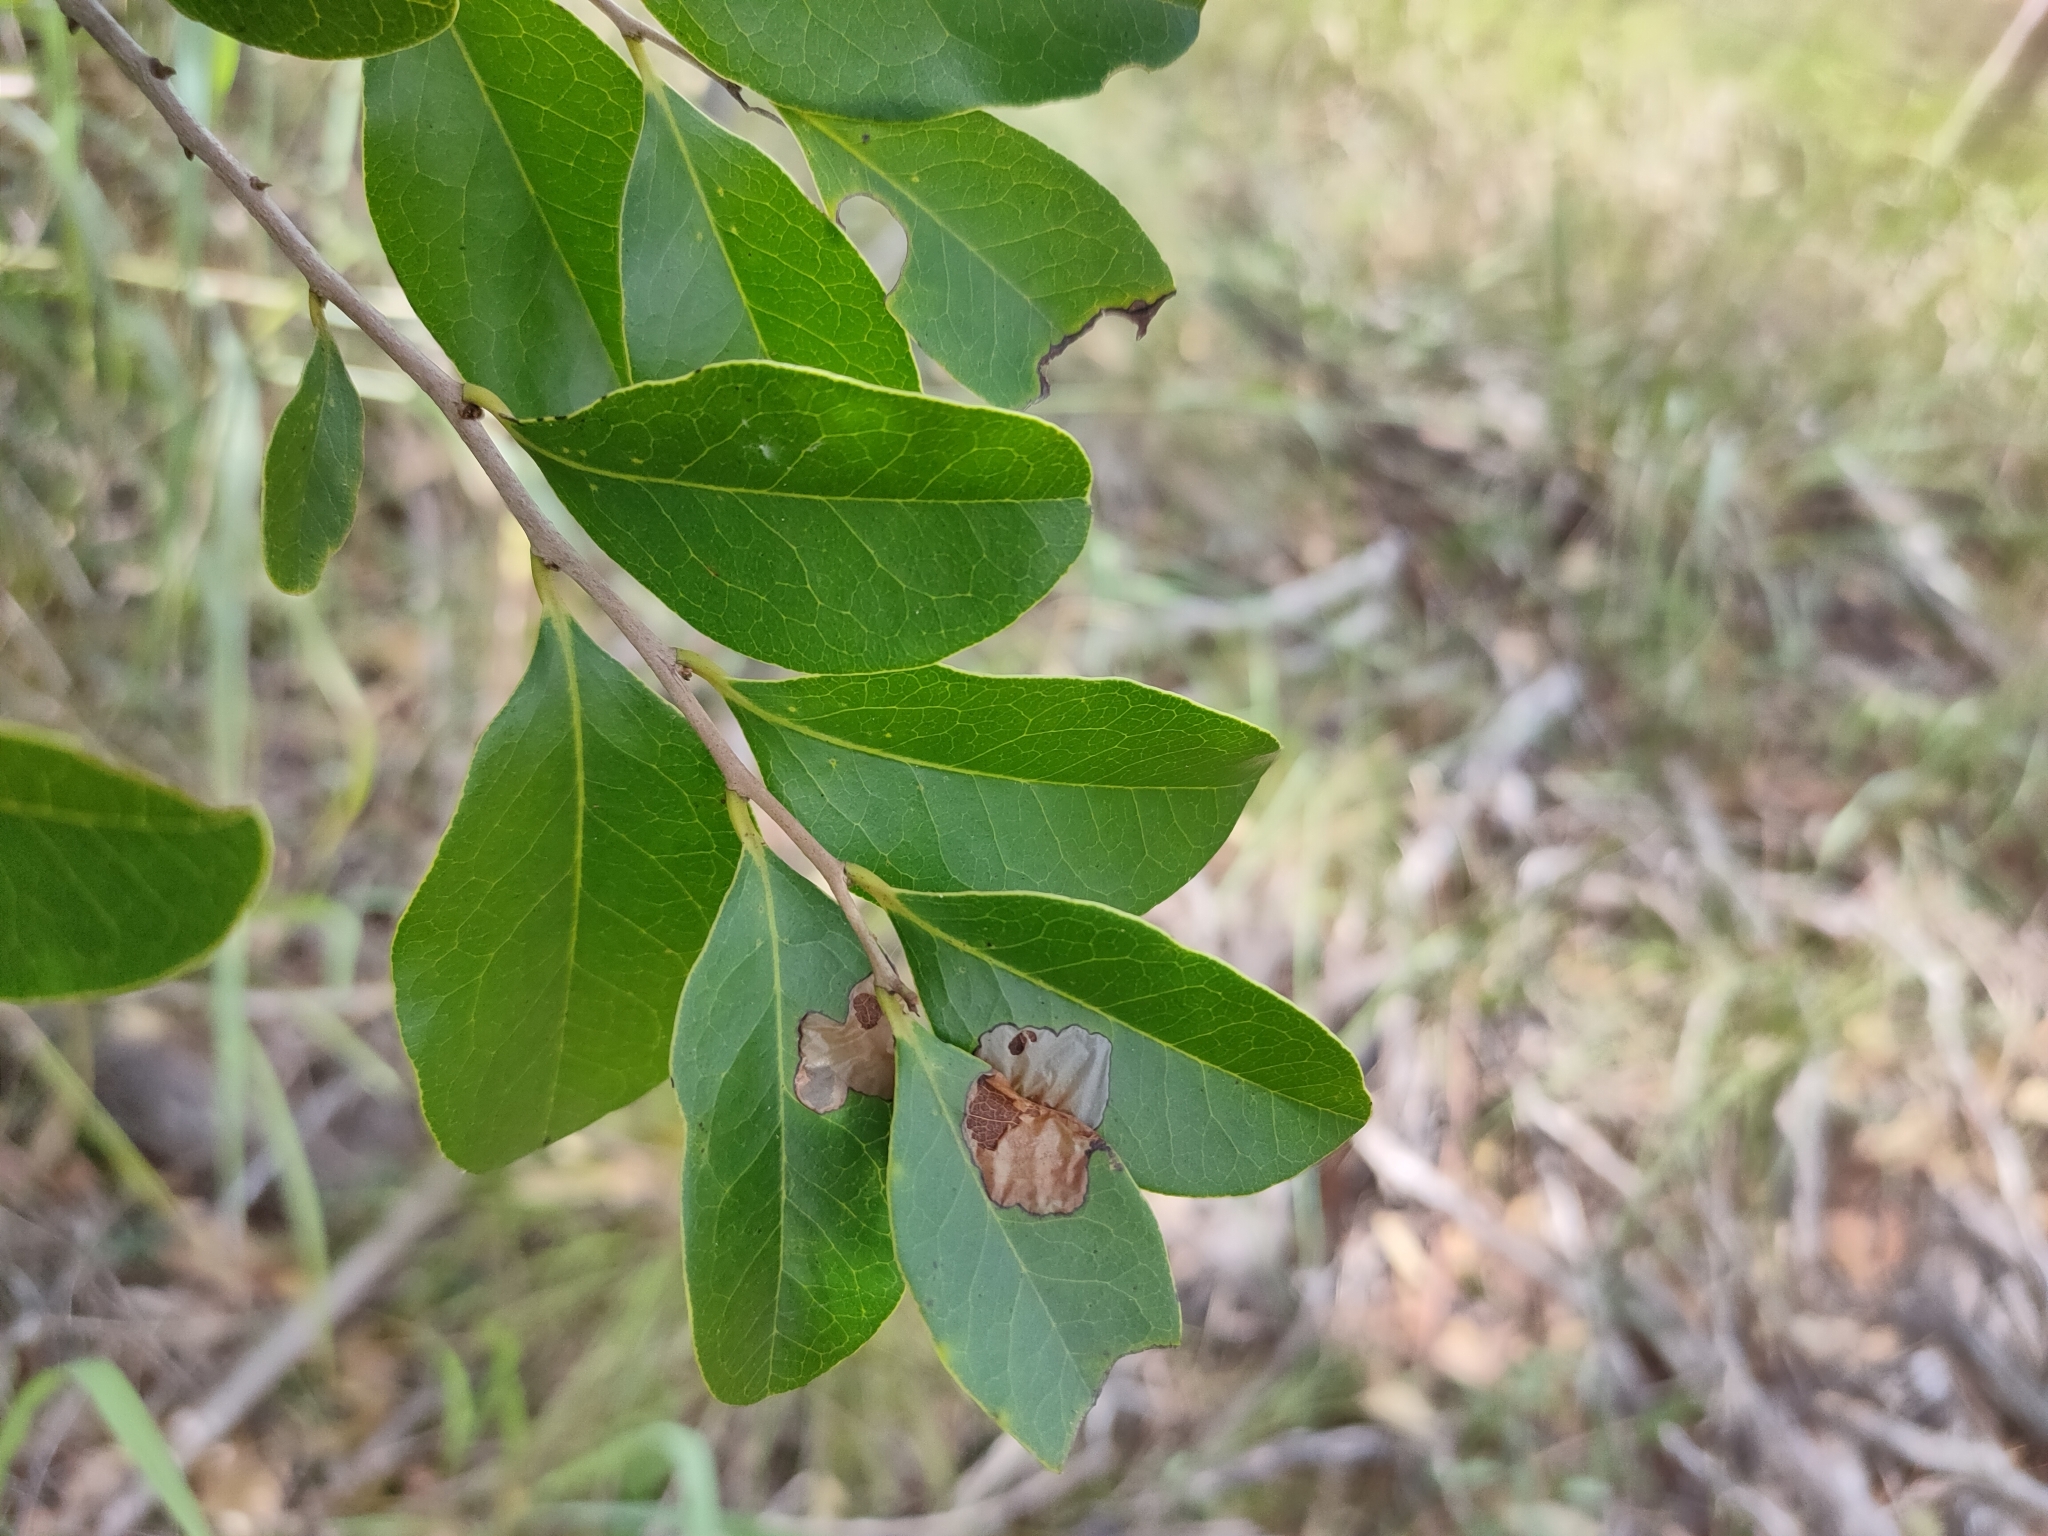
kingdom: Plantae
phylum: Tracheophyta
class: Magnoliopsida
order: Ericales
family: Ebenaceae
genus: Diospyros
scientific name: Diospyros geminata
